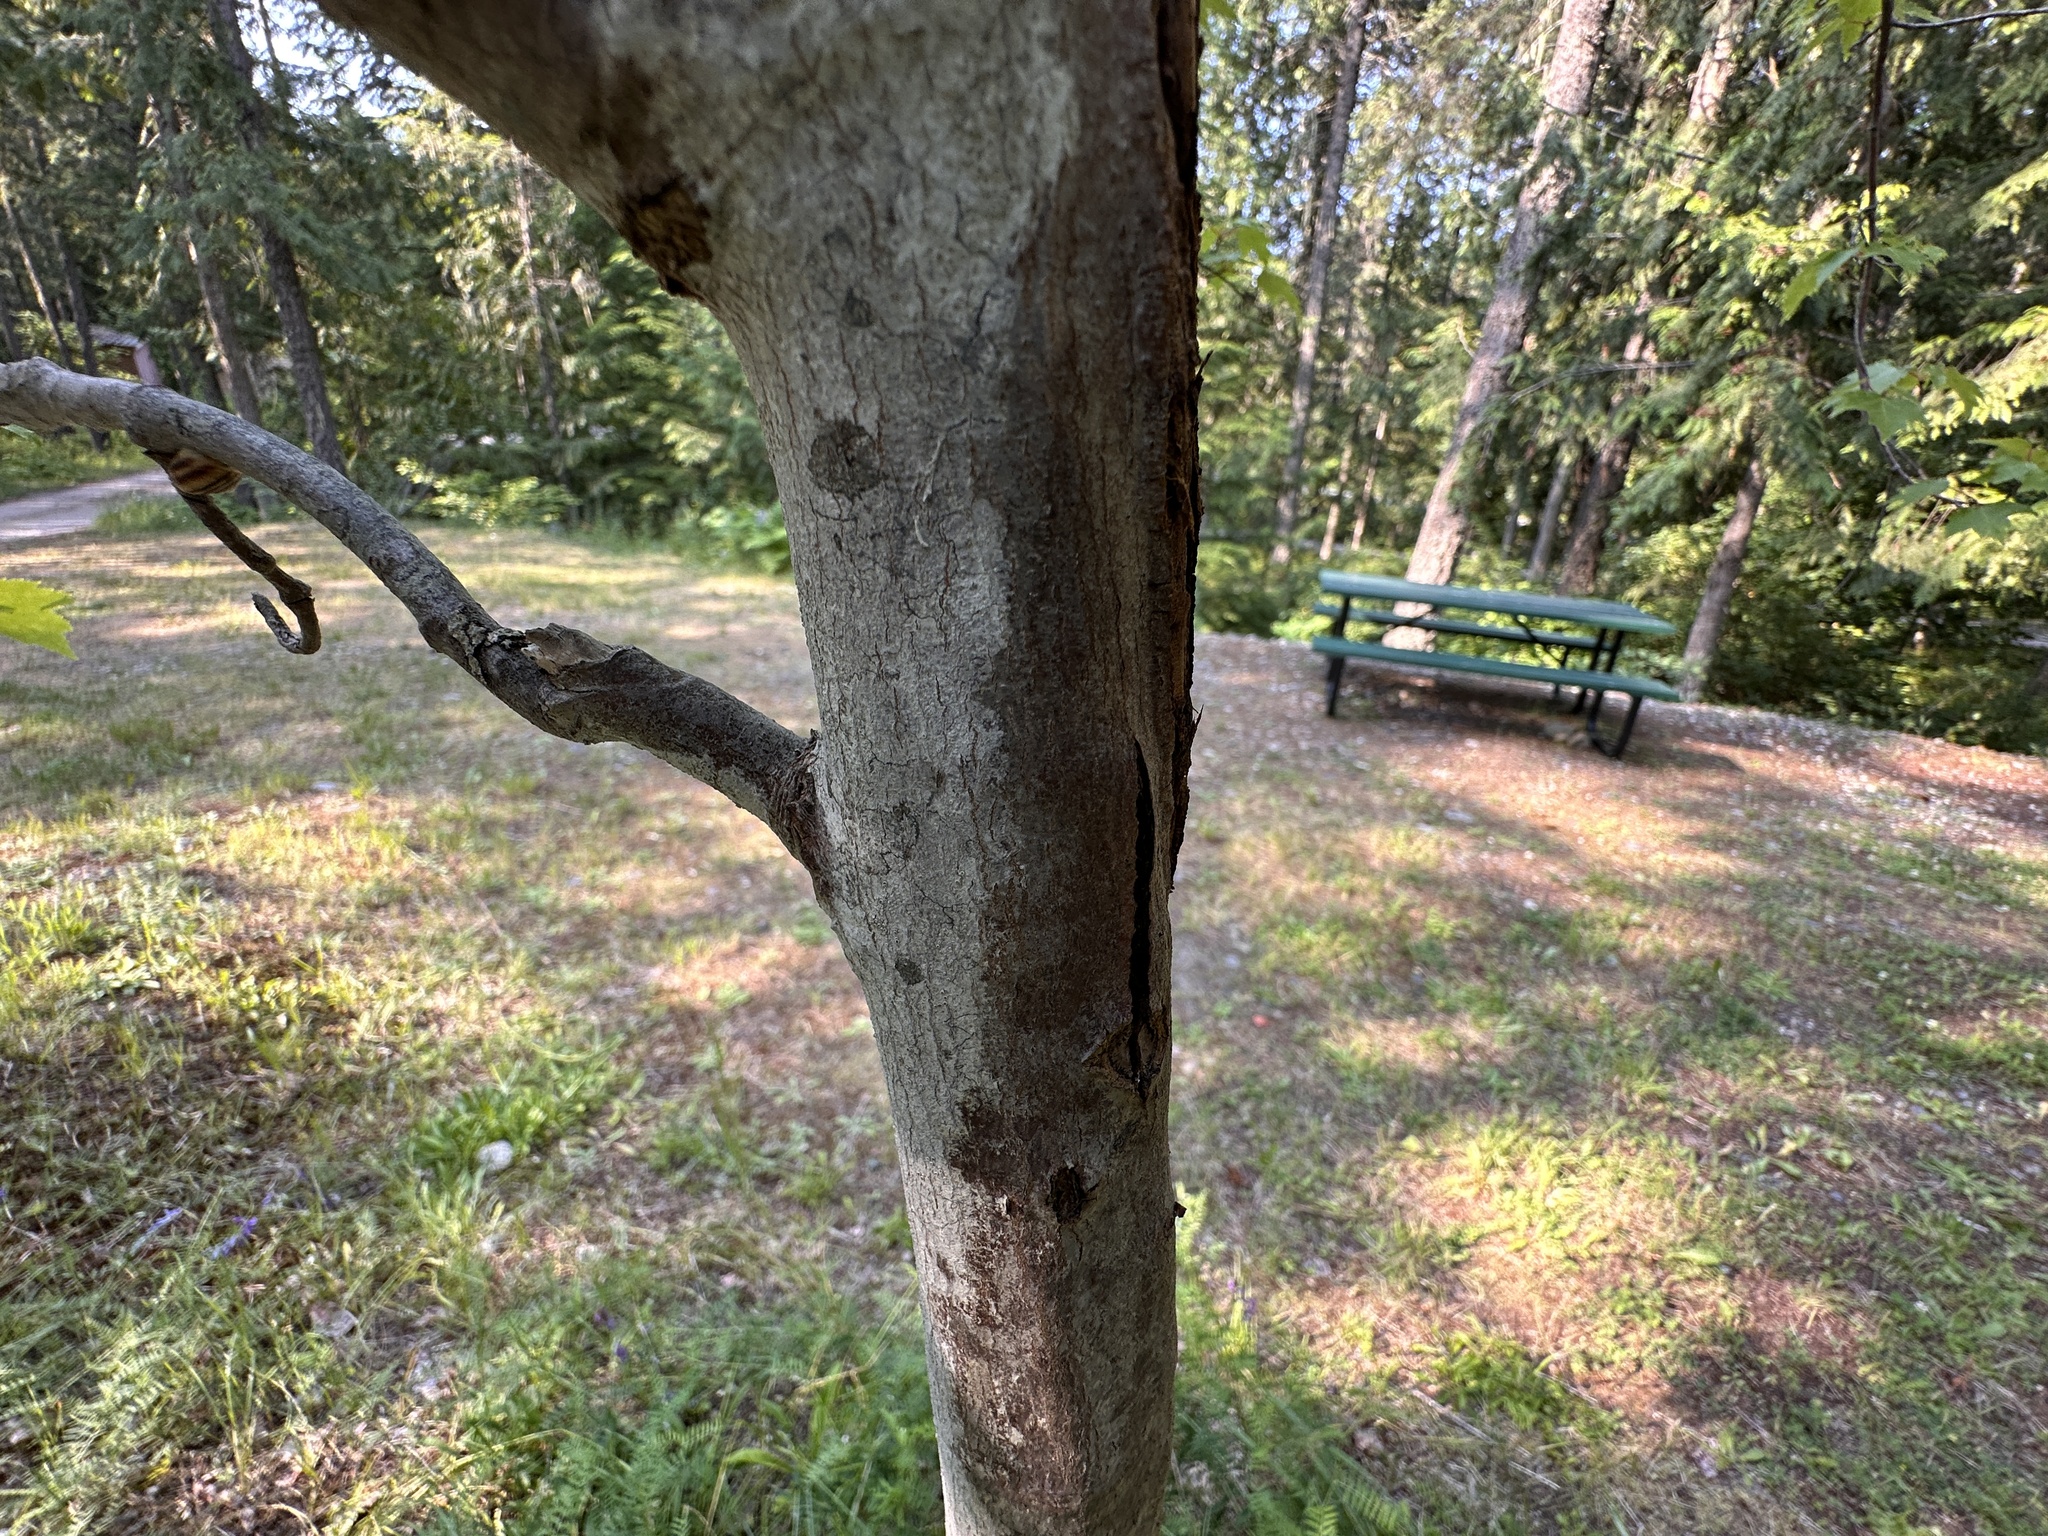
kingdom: Plantae
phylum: Tracheophyta
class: Magnoliopsida
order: Sapindales
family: Sapindaceae
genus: Acer
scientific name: Acer glabrum
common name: Rocky mountain maple
